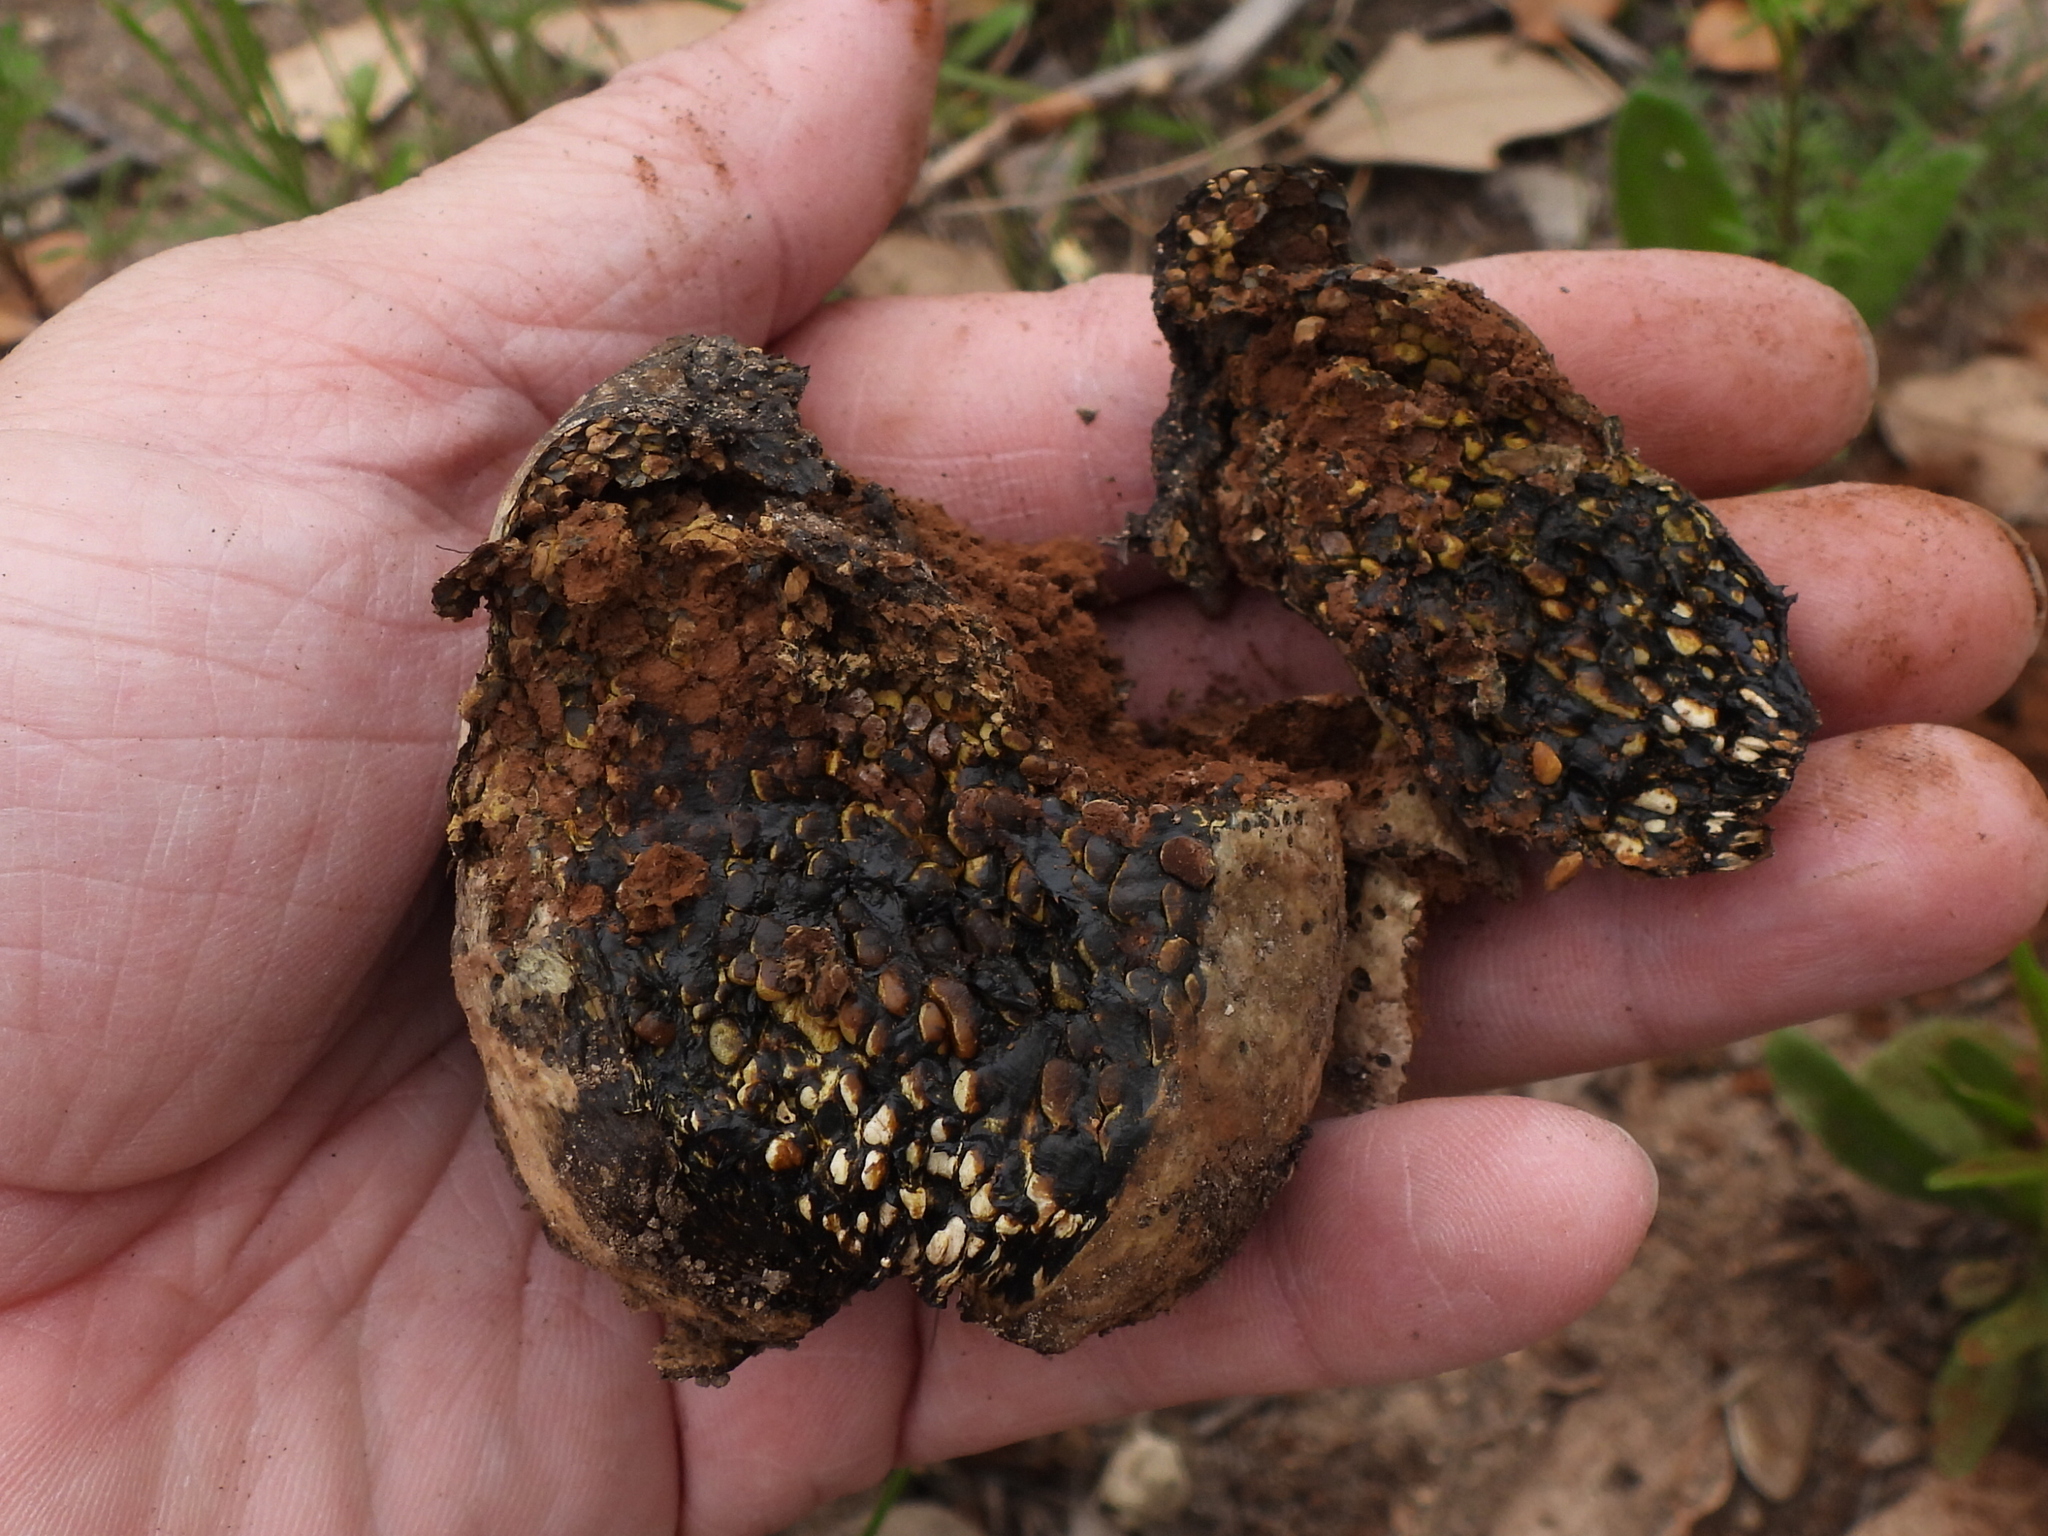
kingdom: Fungi
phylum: Basidiomycota
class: Agaricomycetes
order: Boletales
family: Sclerodermataceae
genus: Pisolithus
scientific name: Pisolithus arenarius
